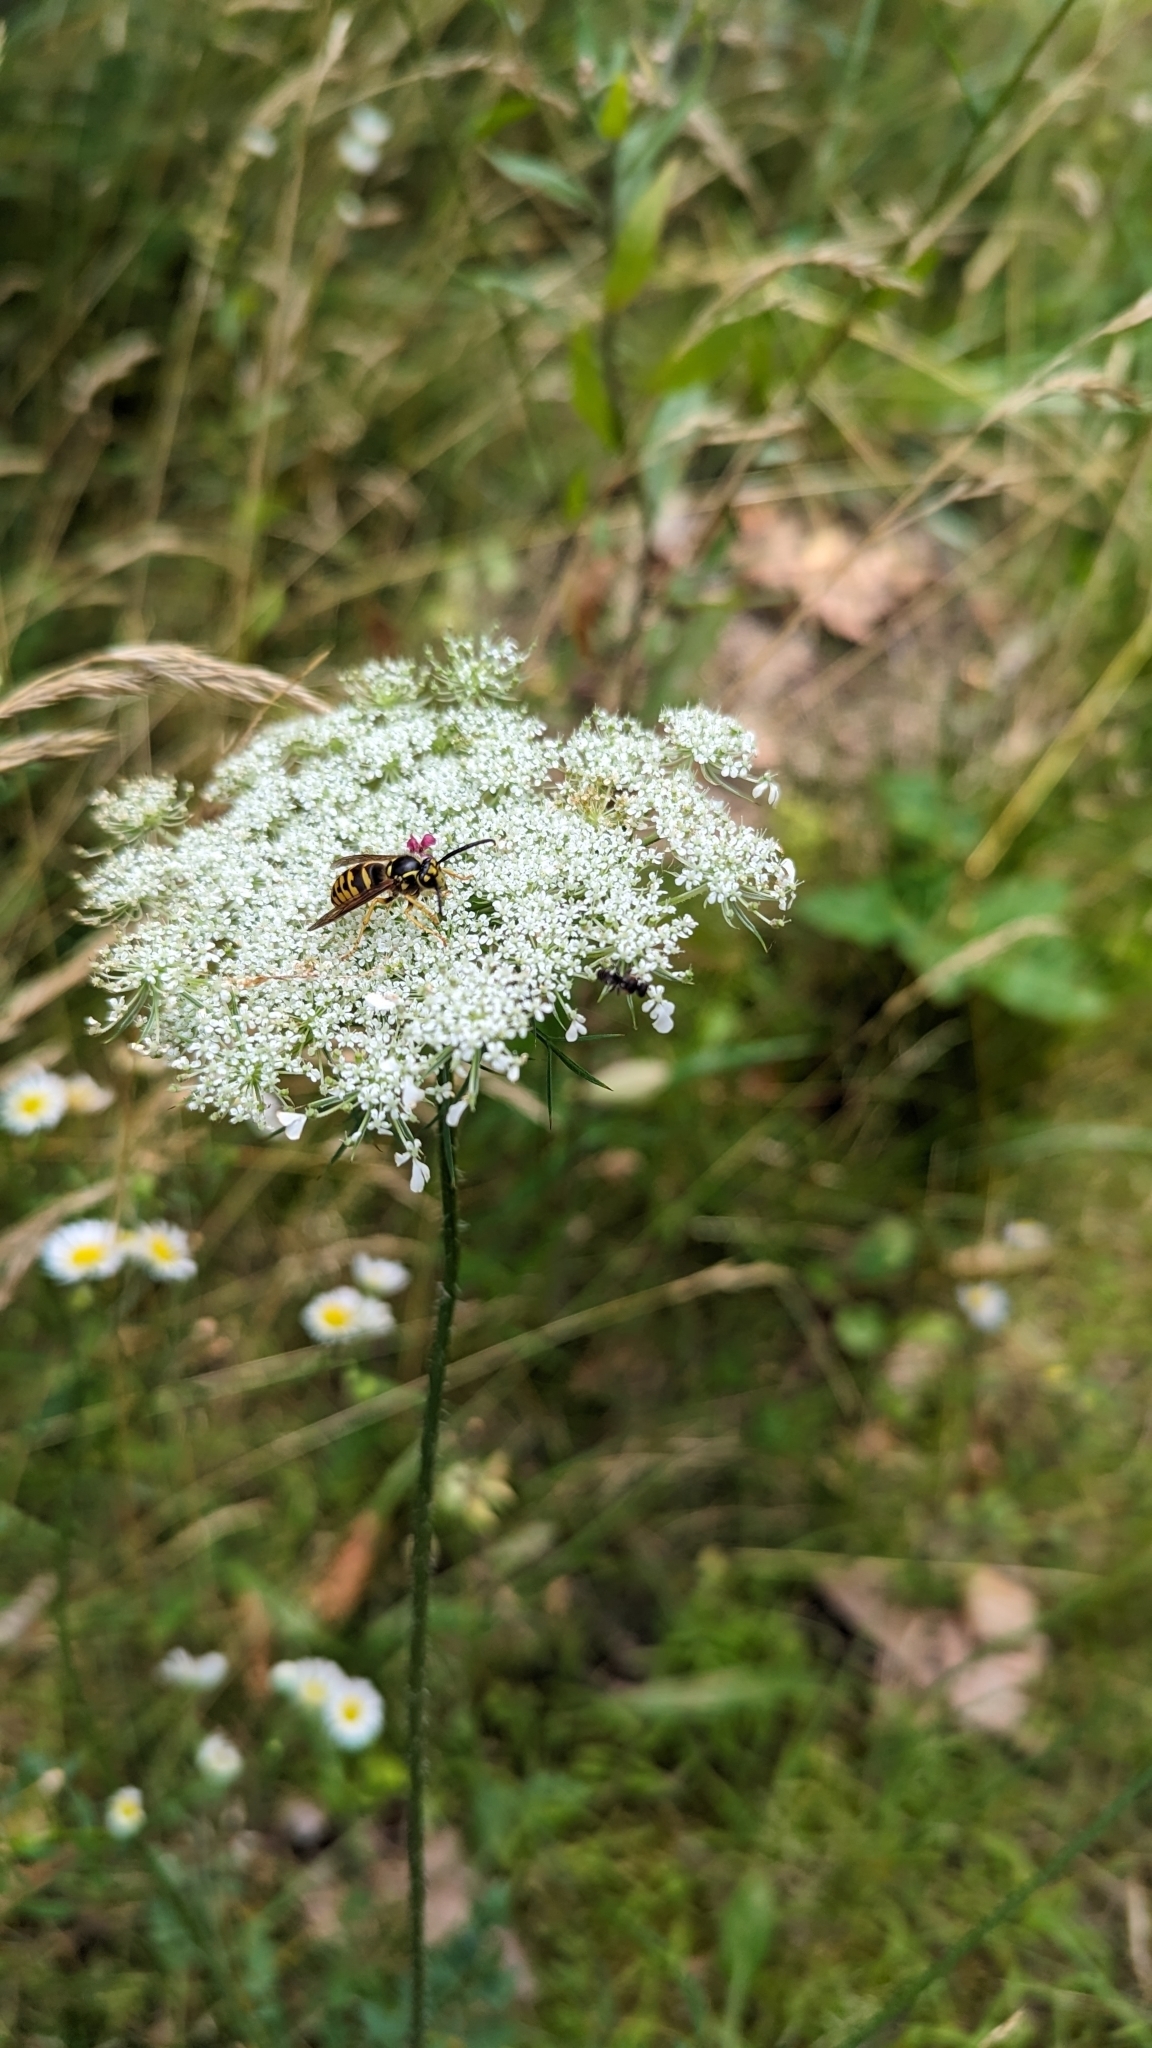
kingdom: Animalia
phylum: Arthropoda
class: Insecta
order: Hymenoptera
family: Vespidae
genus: Dolichovespula
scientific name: Dolichovespula arenaria
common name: Aerial yellowjacket
